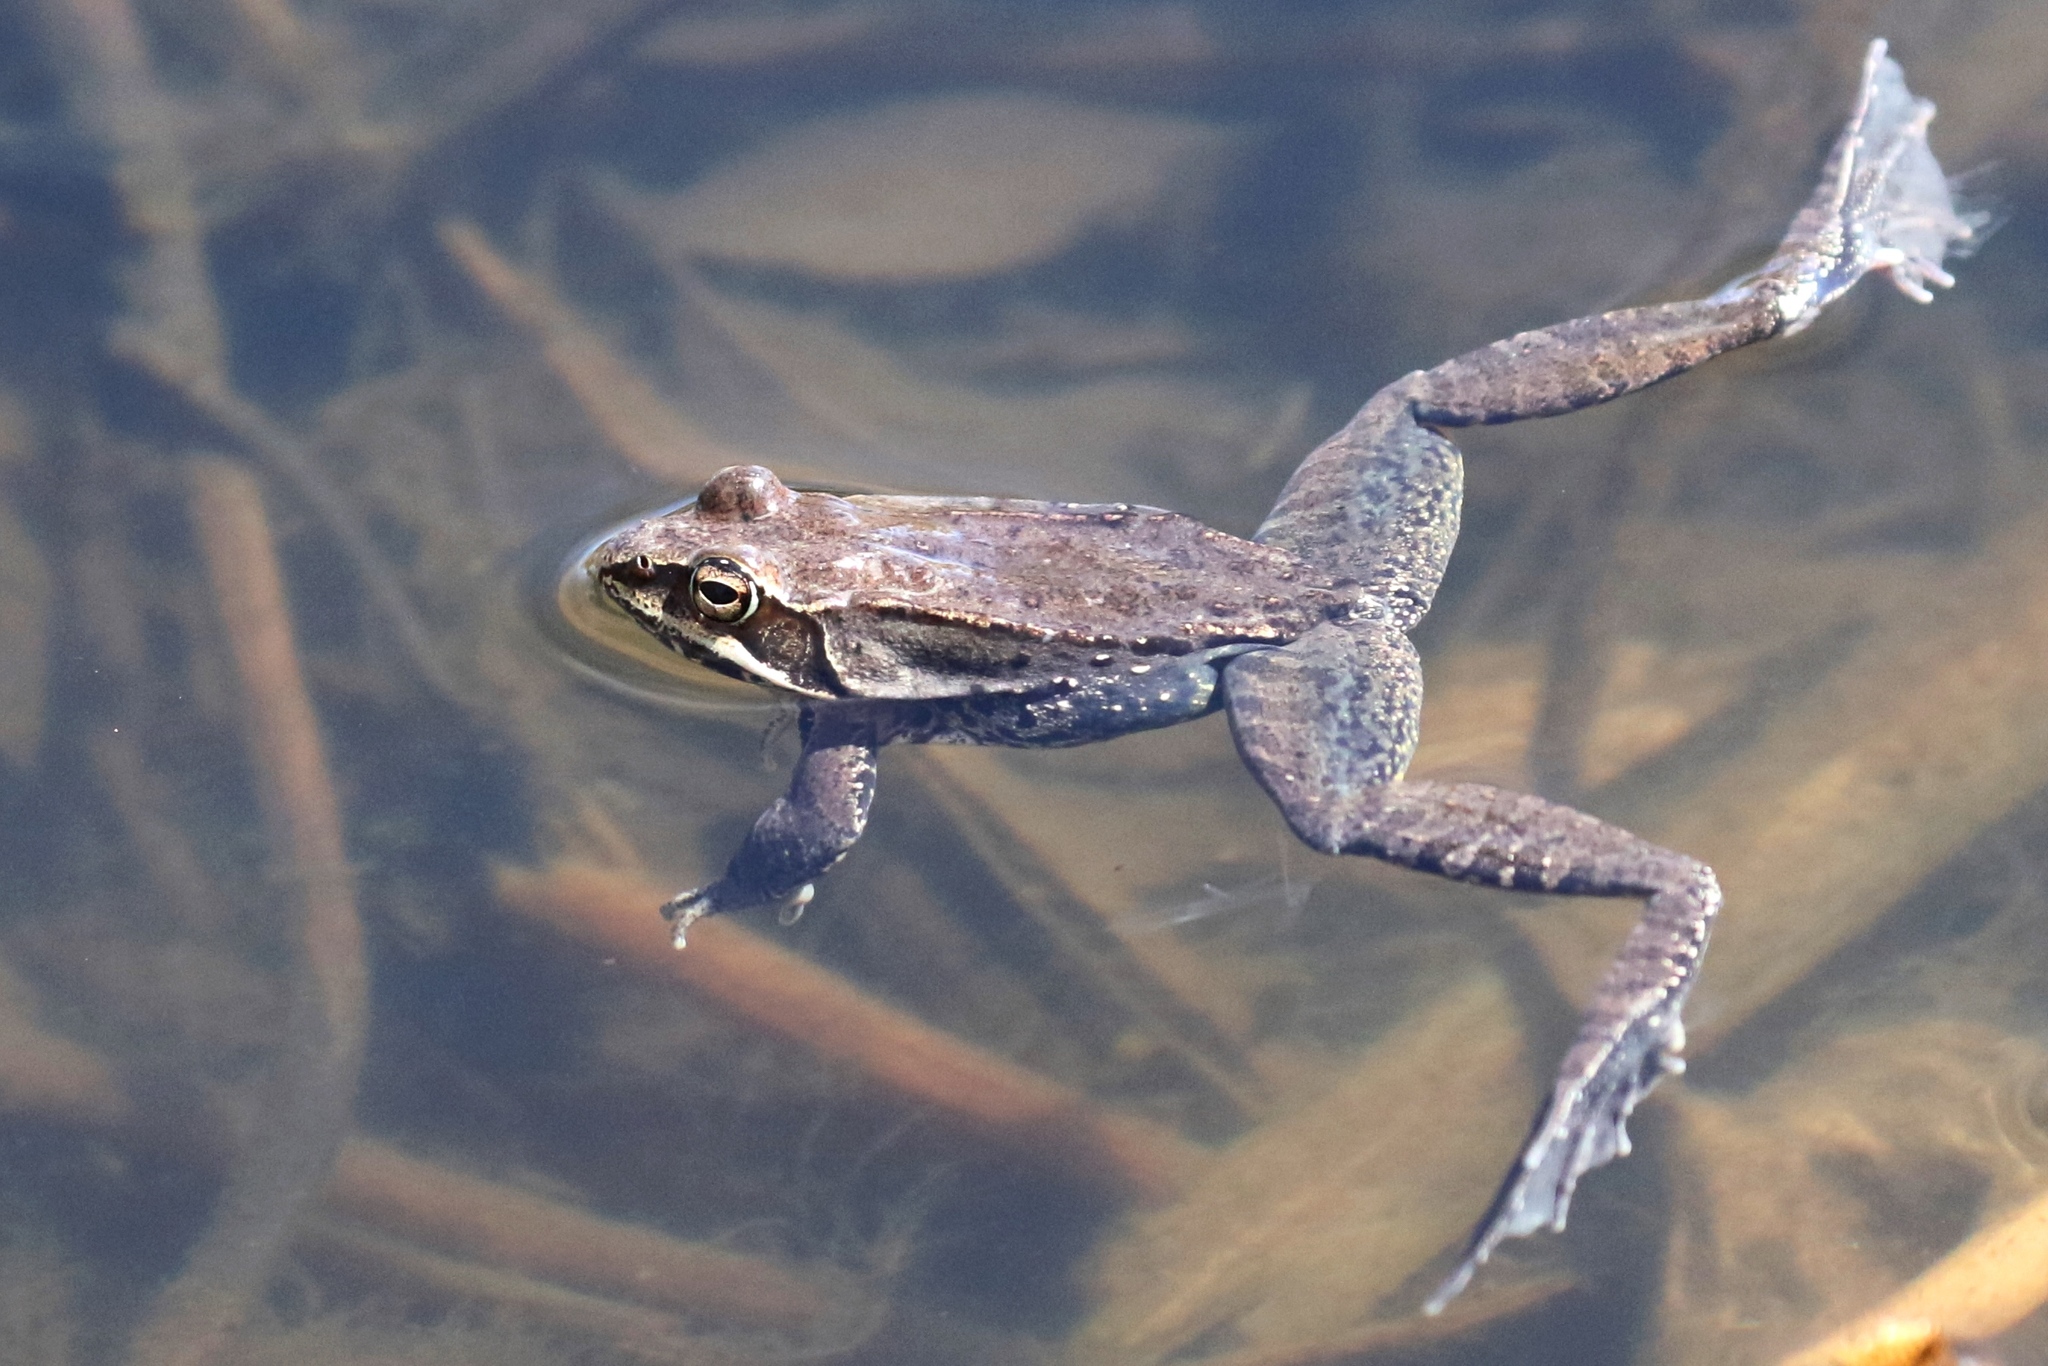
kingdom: Animalia
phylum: Chordata
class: Amphibia
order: Anura
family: Ranidae
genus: Lithobates
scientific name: Lithobates sylvaticus
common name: Wood frog
